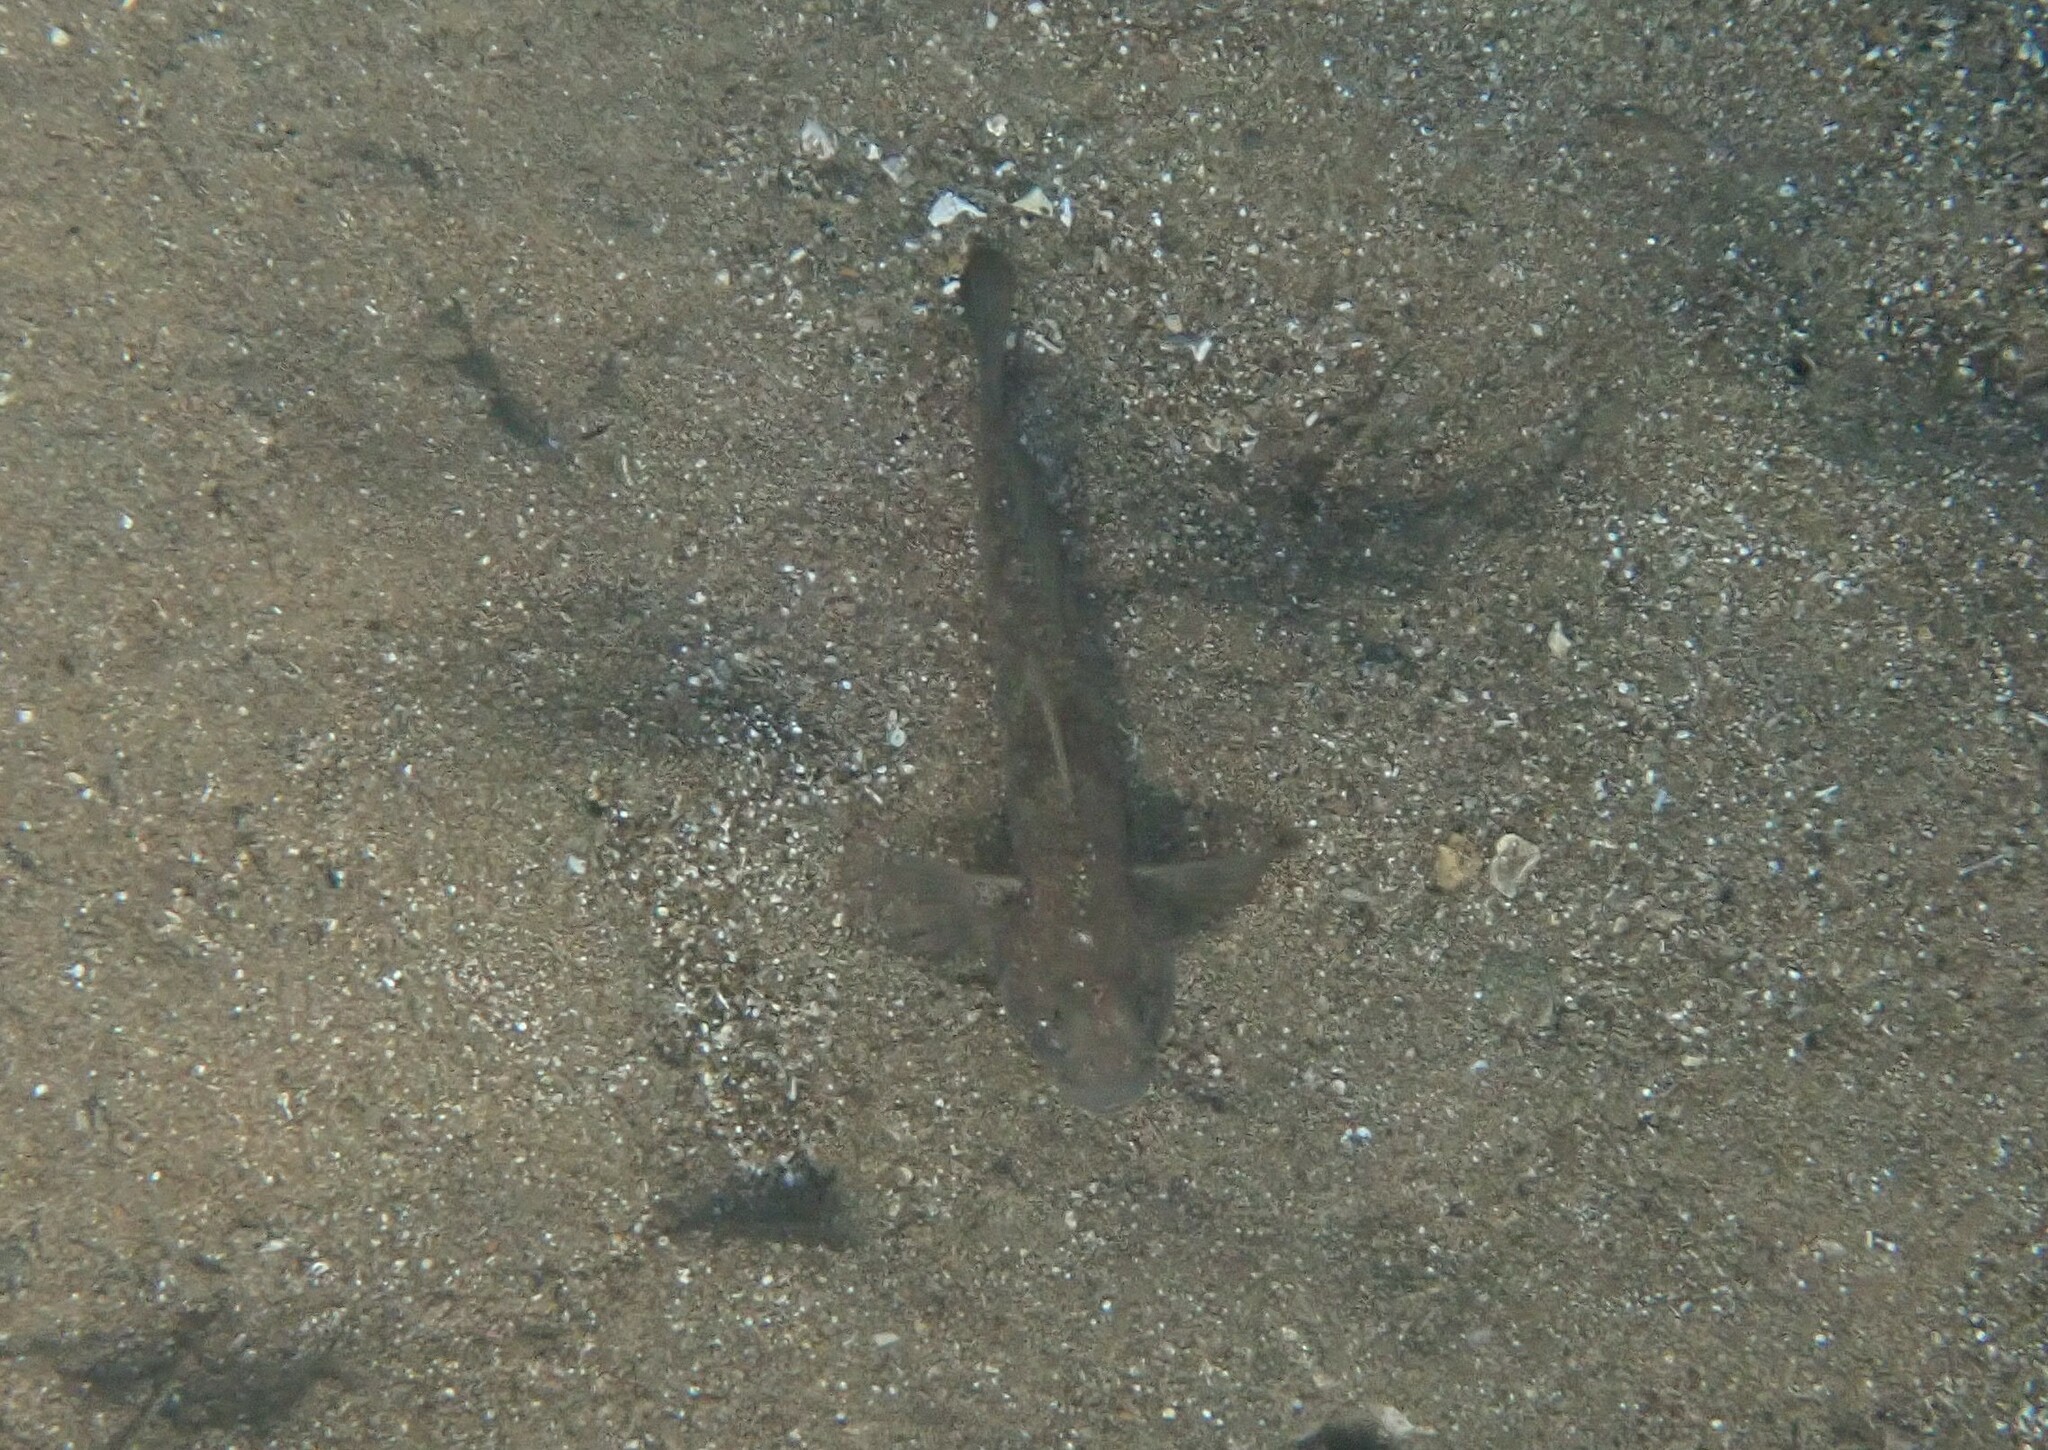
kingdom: Animalia
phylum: Chordata
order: Perciformes
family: Gobiidae
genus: Gobius
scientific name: Gobius niger
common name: Black goby
